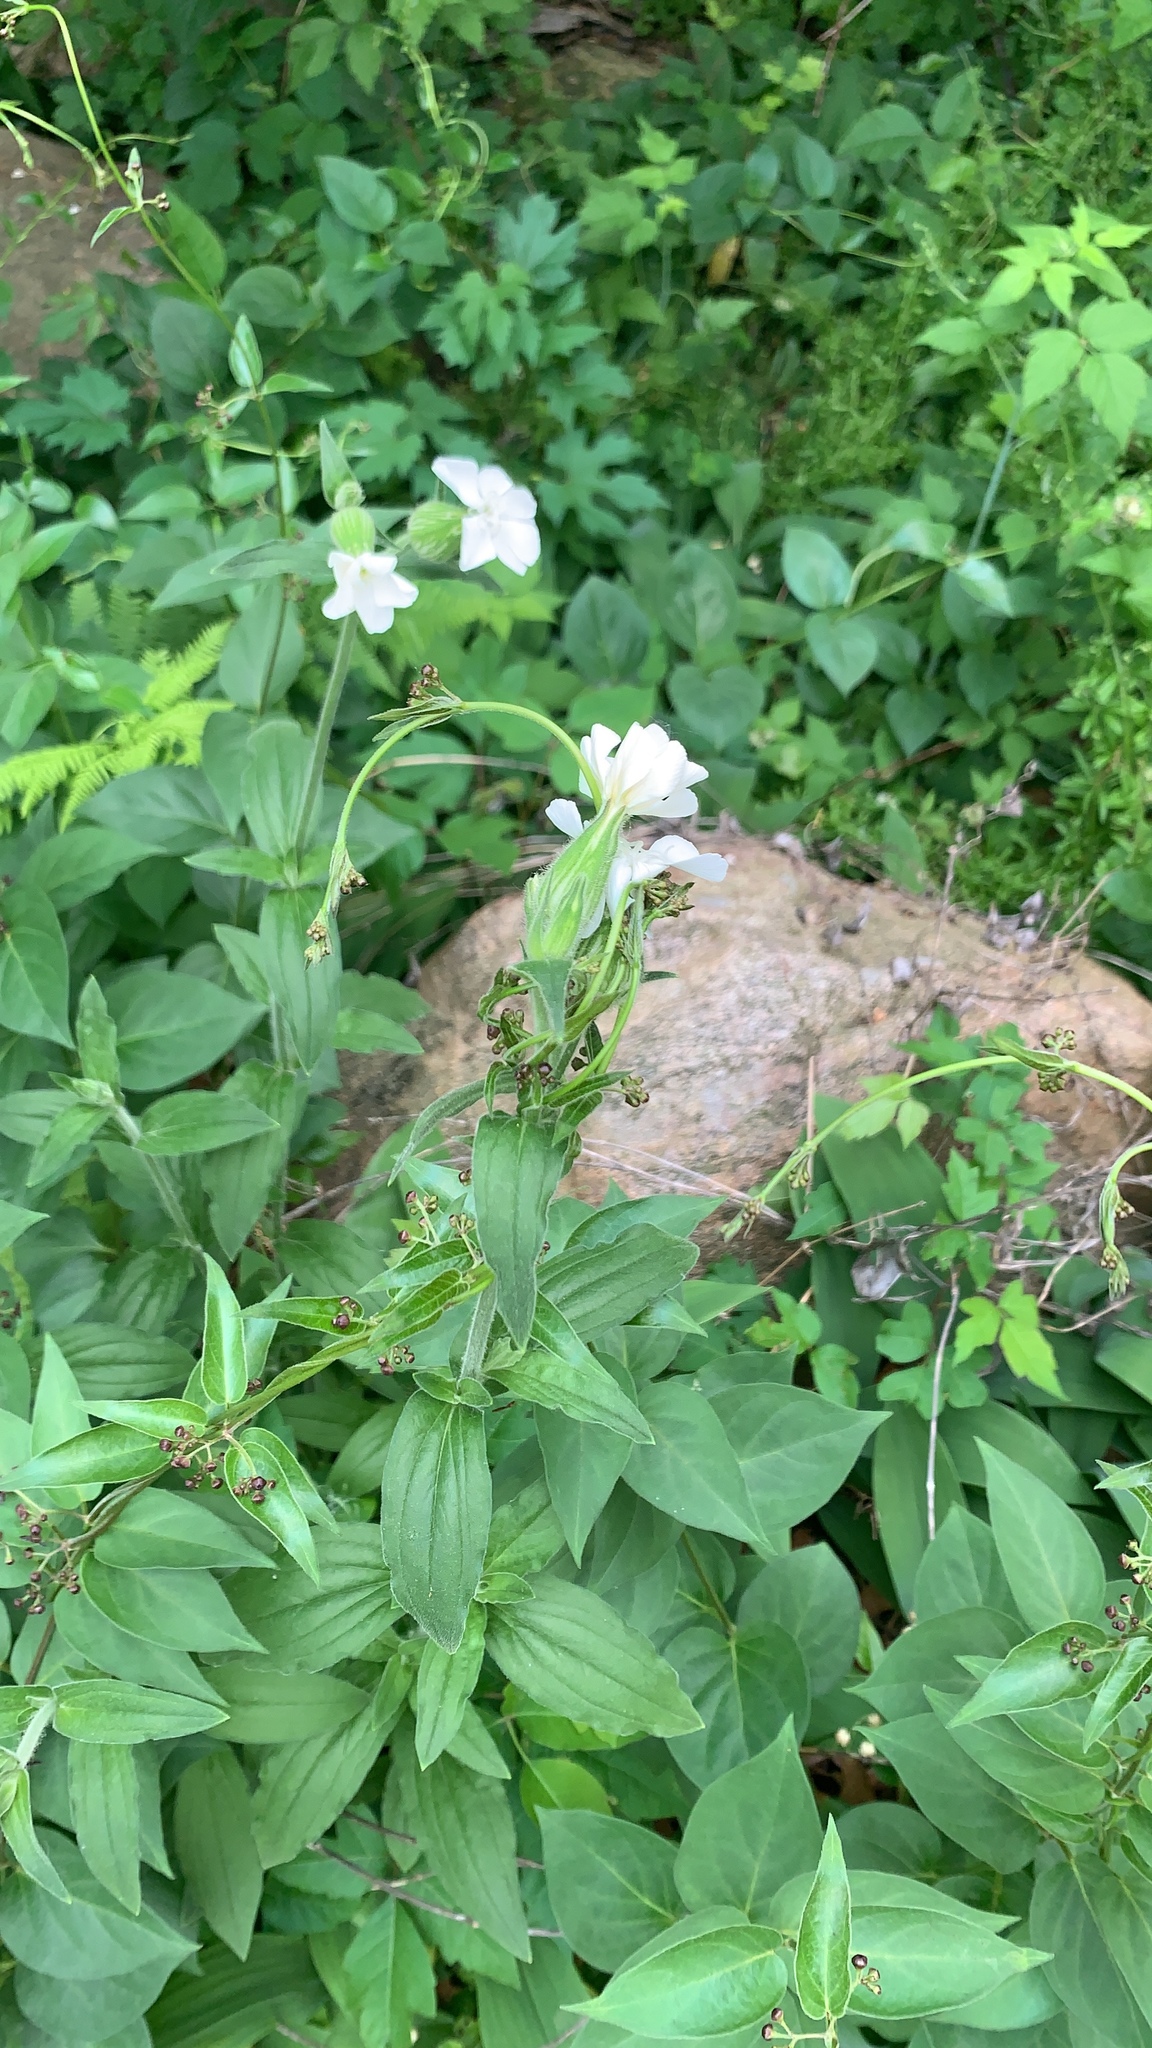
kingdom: Plantae
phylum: Tracheophyta
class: Magnoliopsida
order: Caryophyllales
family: Caryophyllaceae
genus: Silene
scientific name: Silene latifolia
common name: White campion
